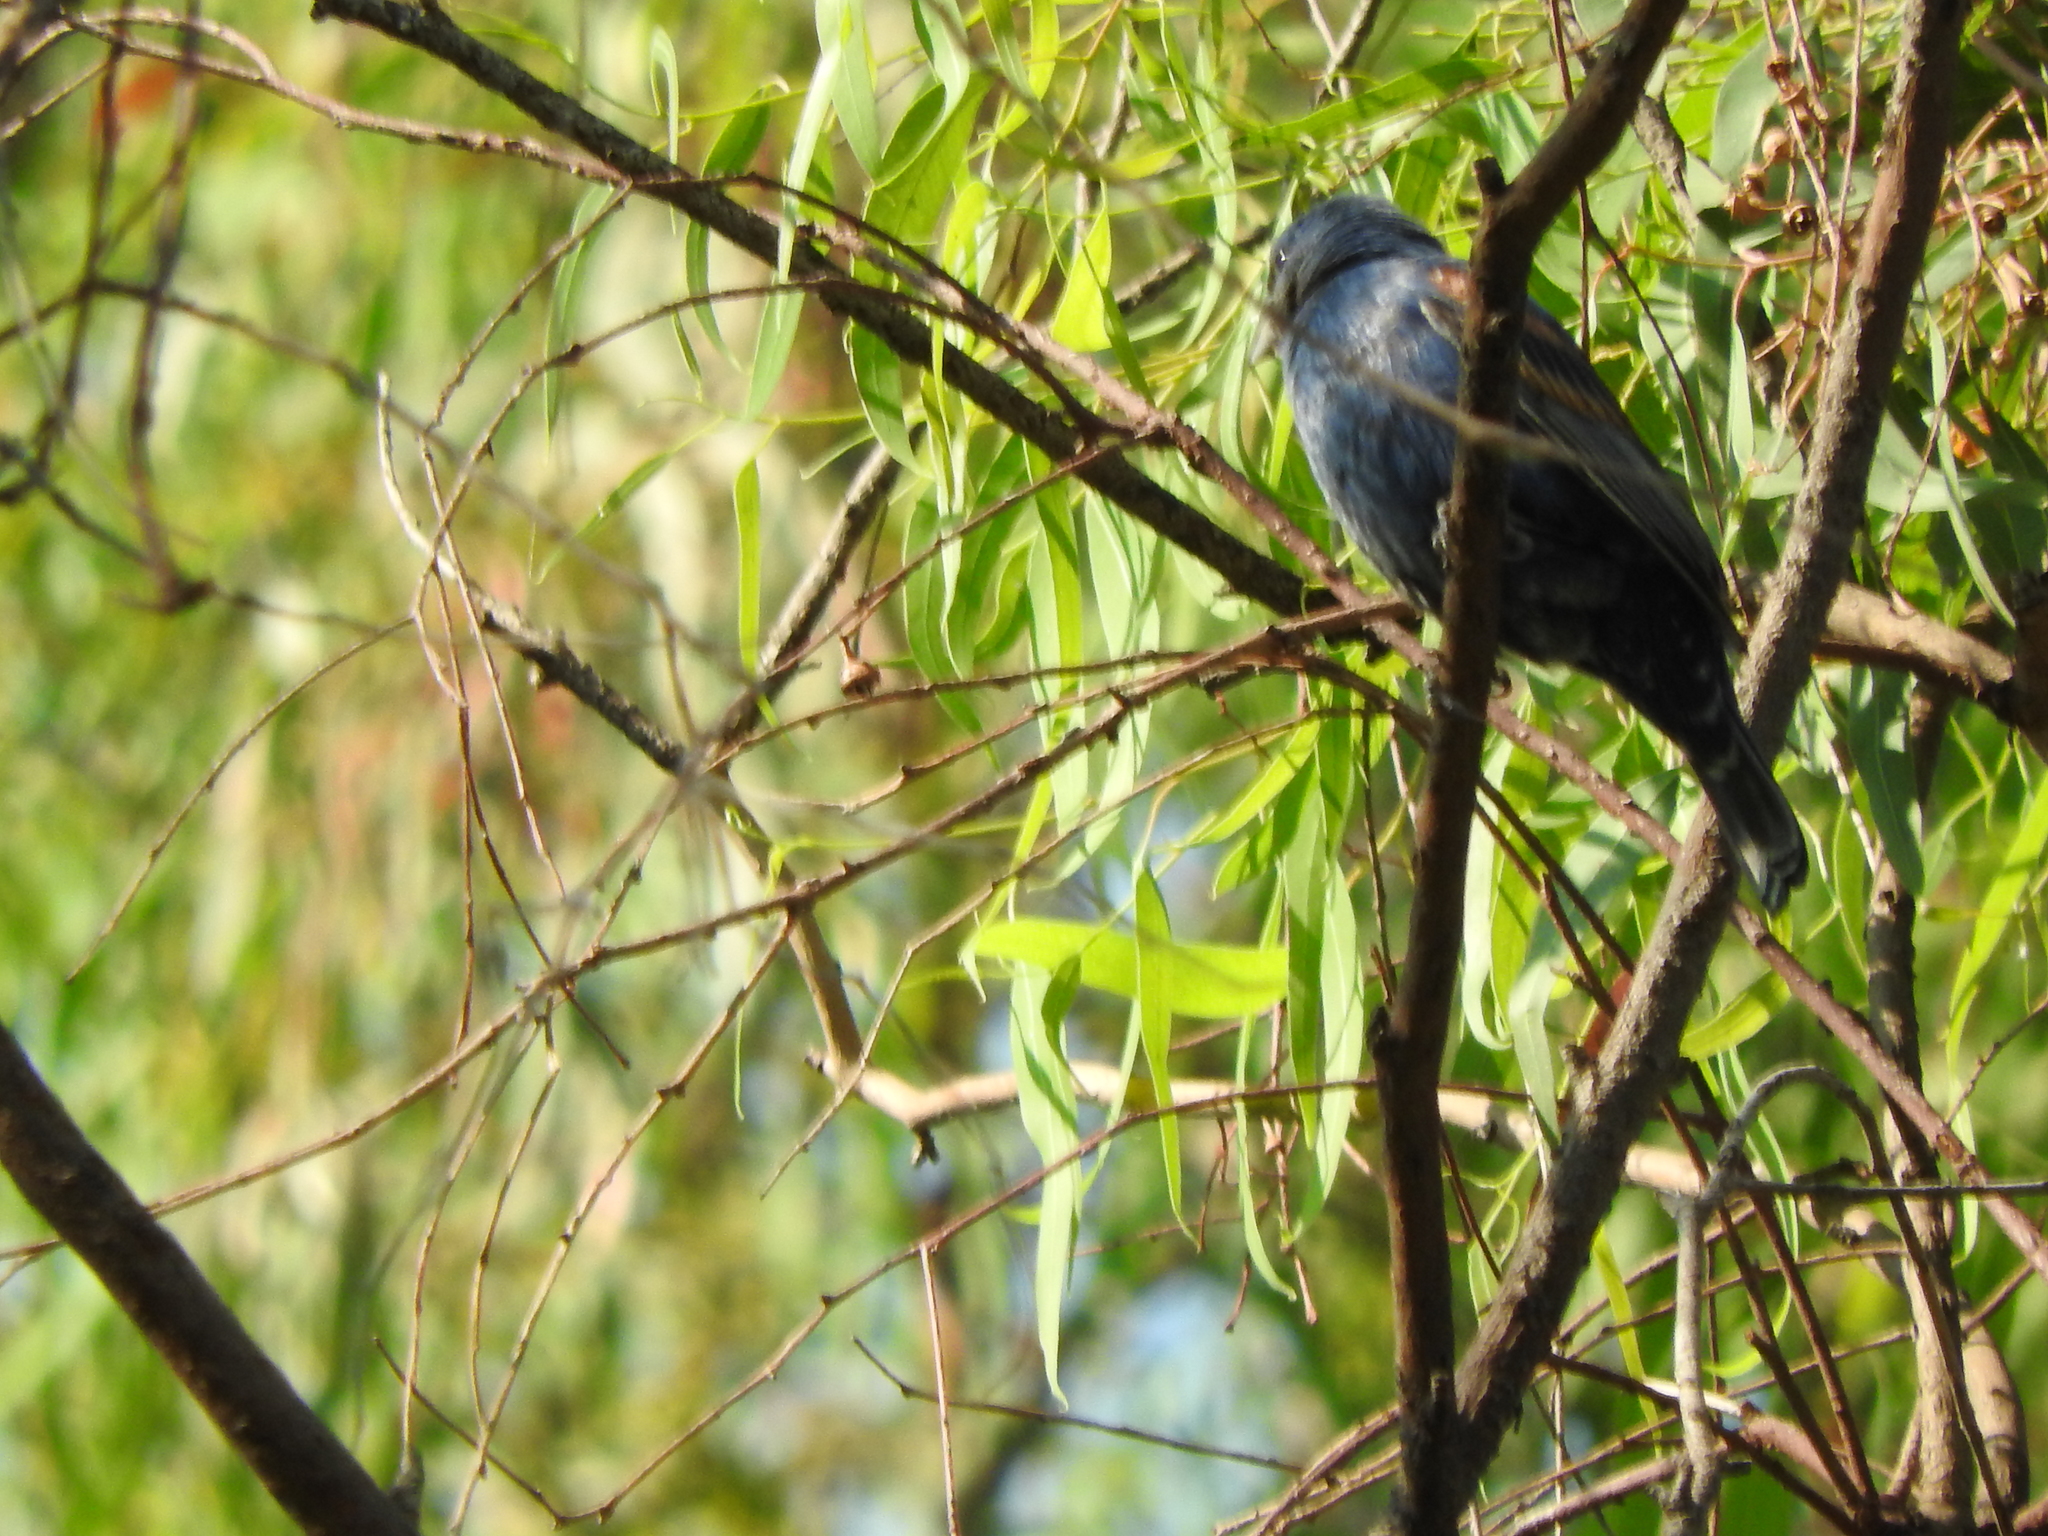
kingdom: Animalia
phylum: Chordata
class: Aves
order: Passeriformes
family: Cardinalidae
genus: Passerina
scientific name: Passerina caerulea
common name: Blue grosbeak
